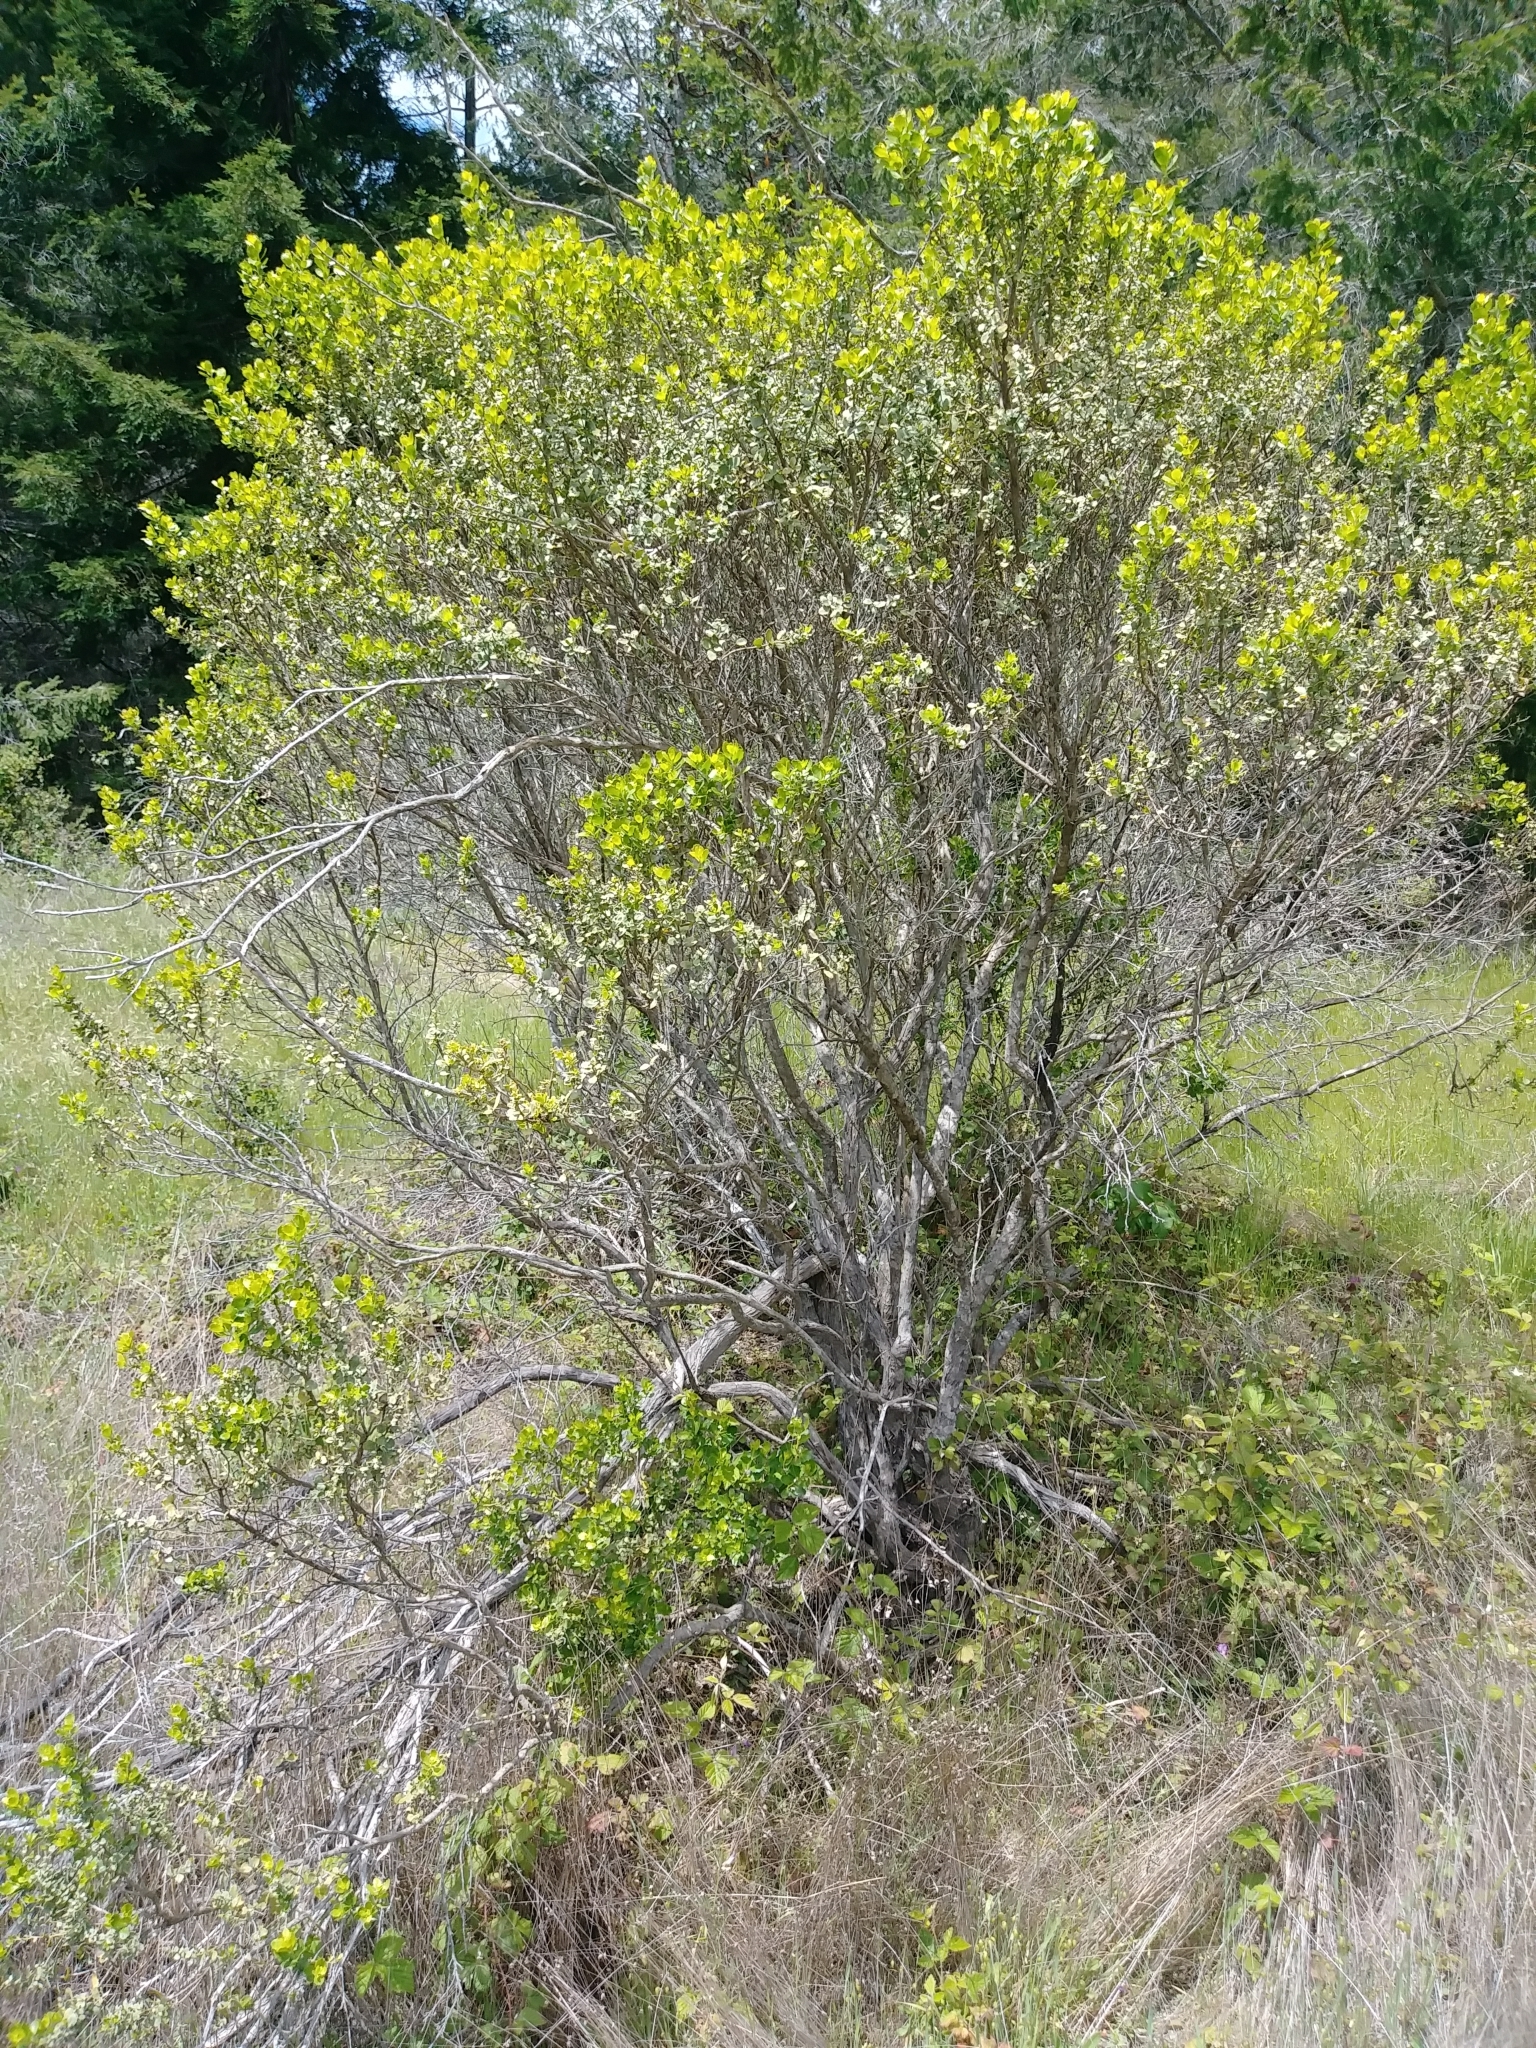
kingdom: Plantae
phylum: Tracheophyta
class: Magnoliopsida
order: Asterales
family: Asteraceae
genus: Baccharis
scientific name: Baccharis pilularis
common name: Coyotebrush
